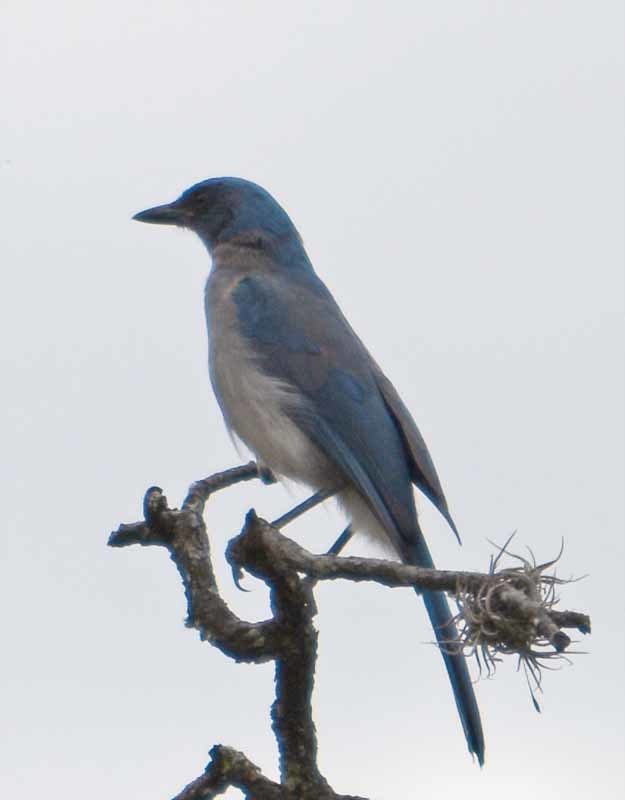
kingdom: Animalia
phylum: Chordata
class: Aves
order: Passeriformes
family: Corvidae
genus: Aphelocoma
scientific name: Aphelocoma wollweberi
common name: Mexican jay
